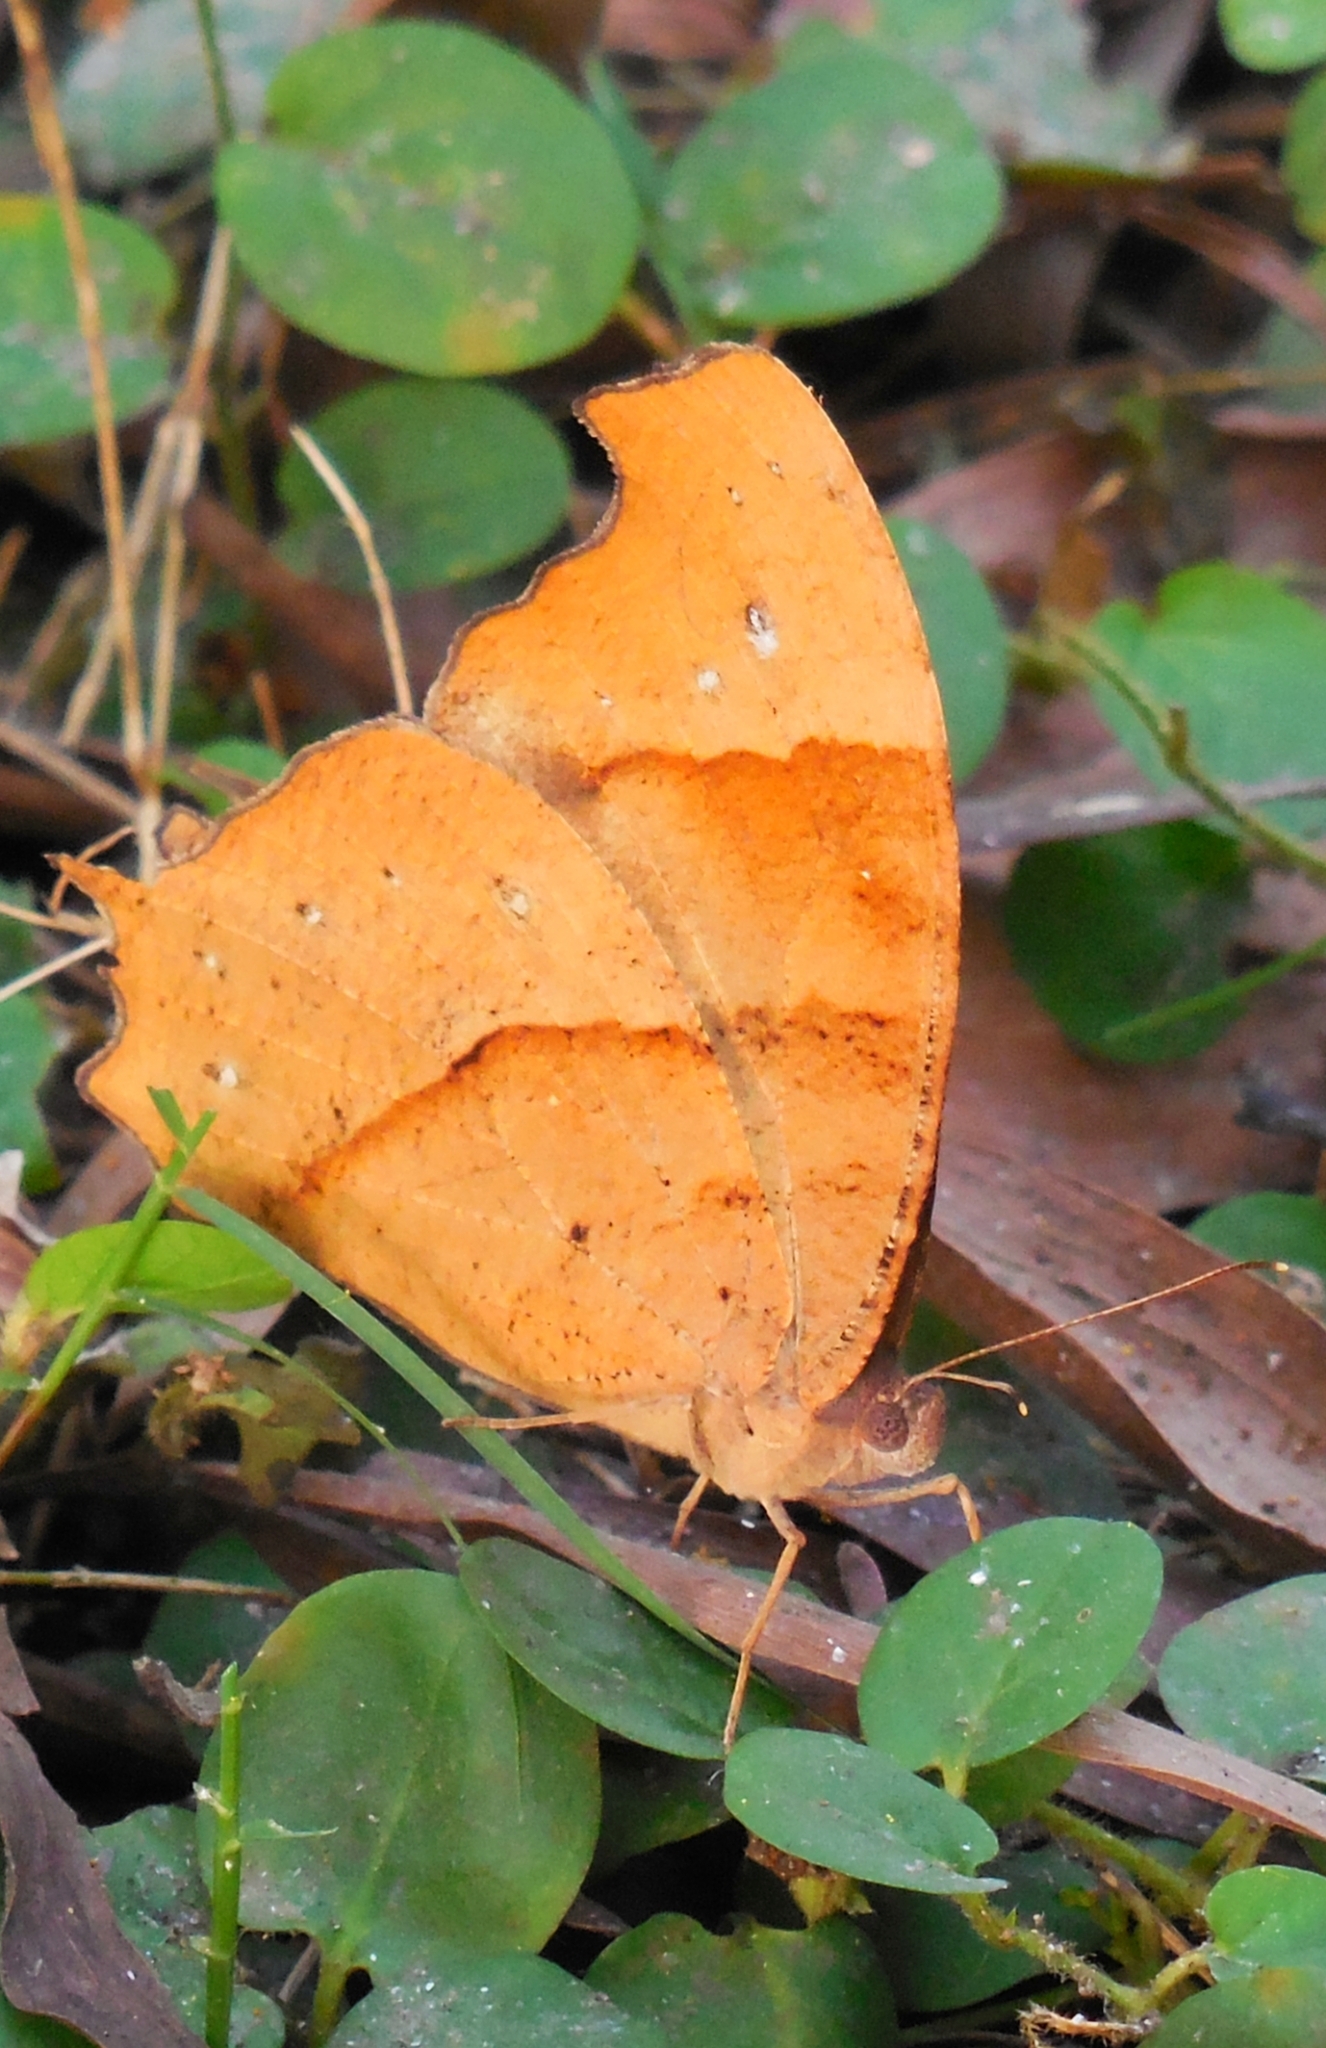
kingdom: Animalia
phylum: Arthropoda
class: Insecta
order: Lepidoptera
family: Nymphalidae
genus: Melanitis
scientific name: Melanitis zitenius
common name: Great evening brown
